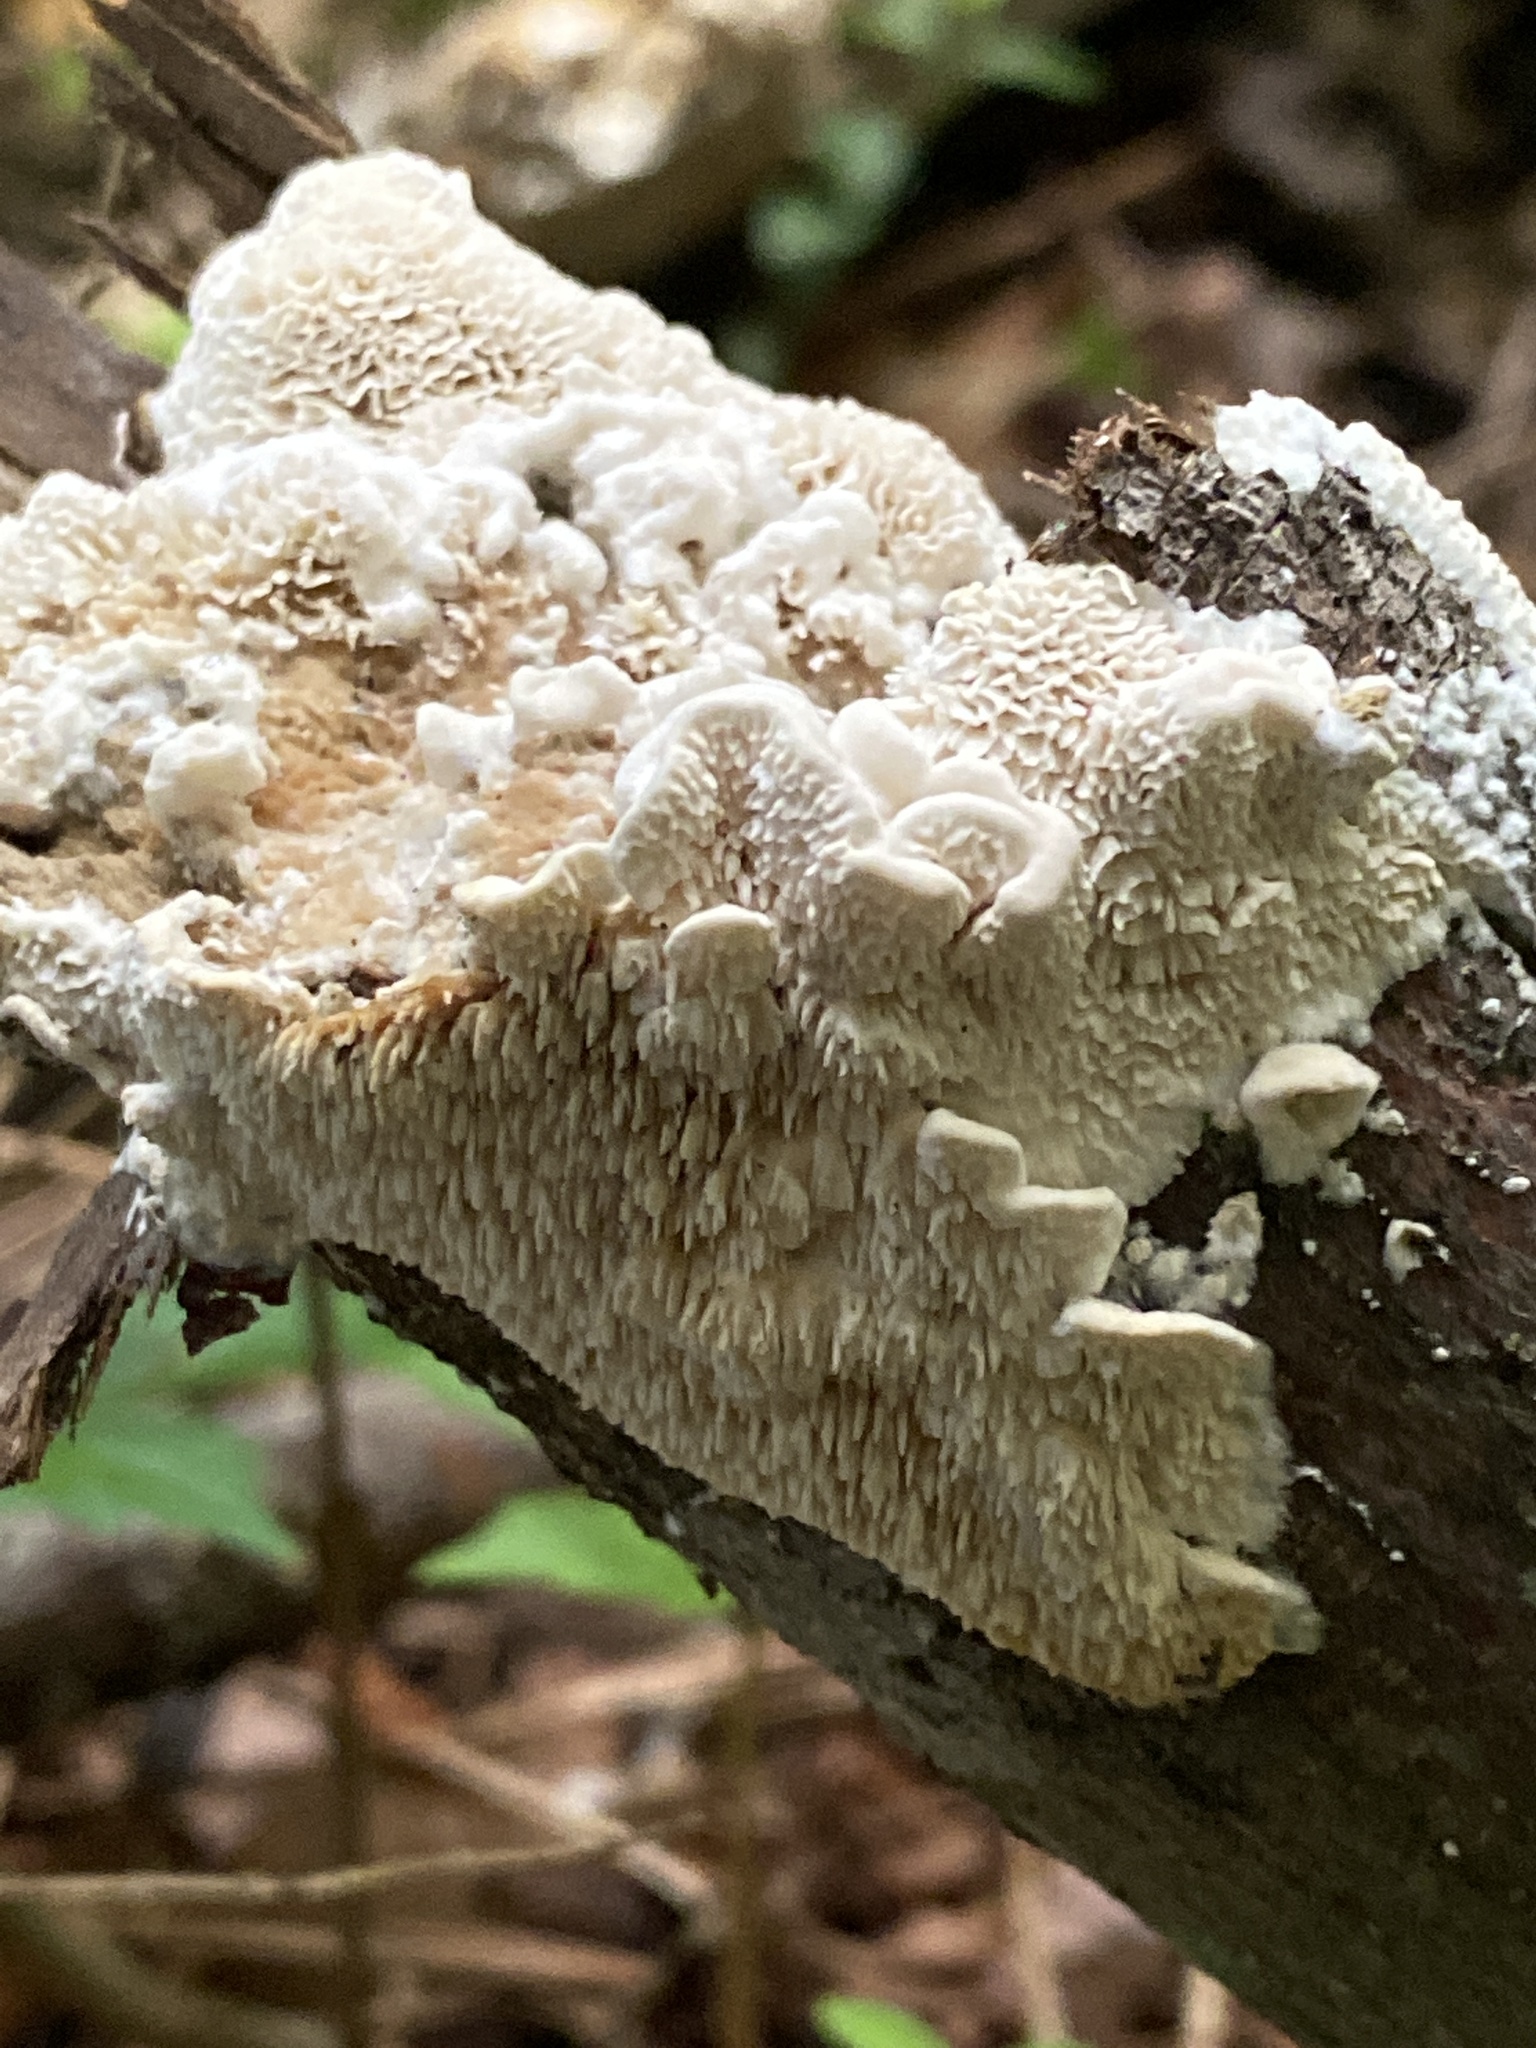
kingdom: Fungi
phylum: Basidiomycota
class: Agaricomycetes
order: Polyporales
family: Irpicaceae
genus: Irpex
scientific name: Irpex lacteus
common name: Milk-white toothed polypore
